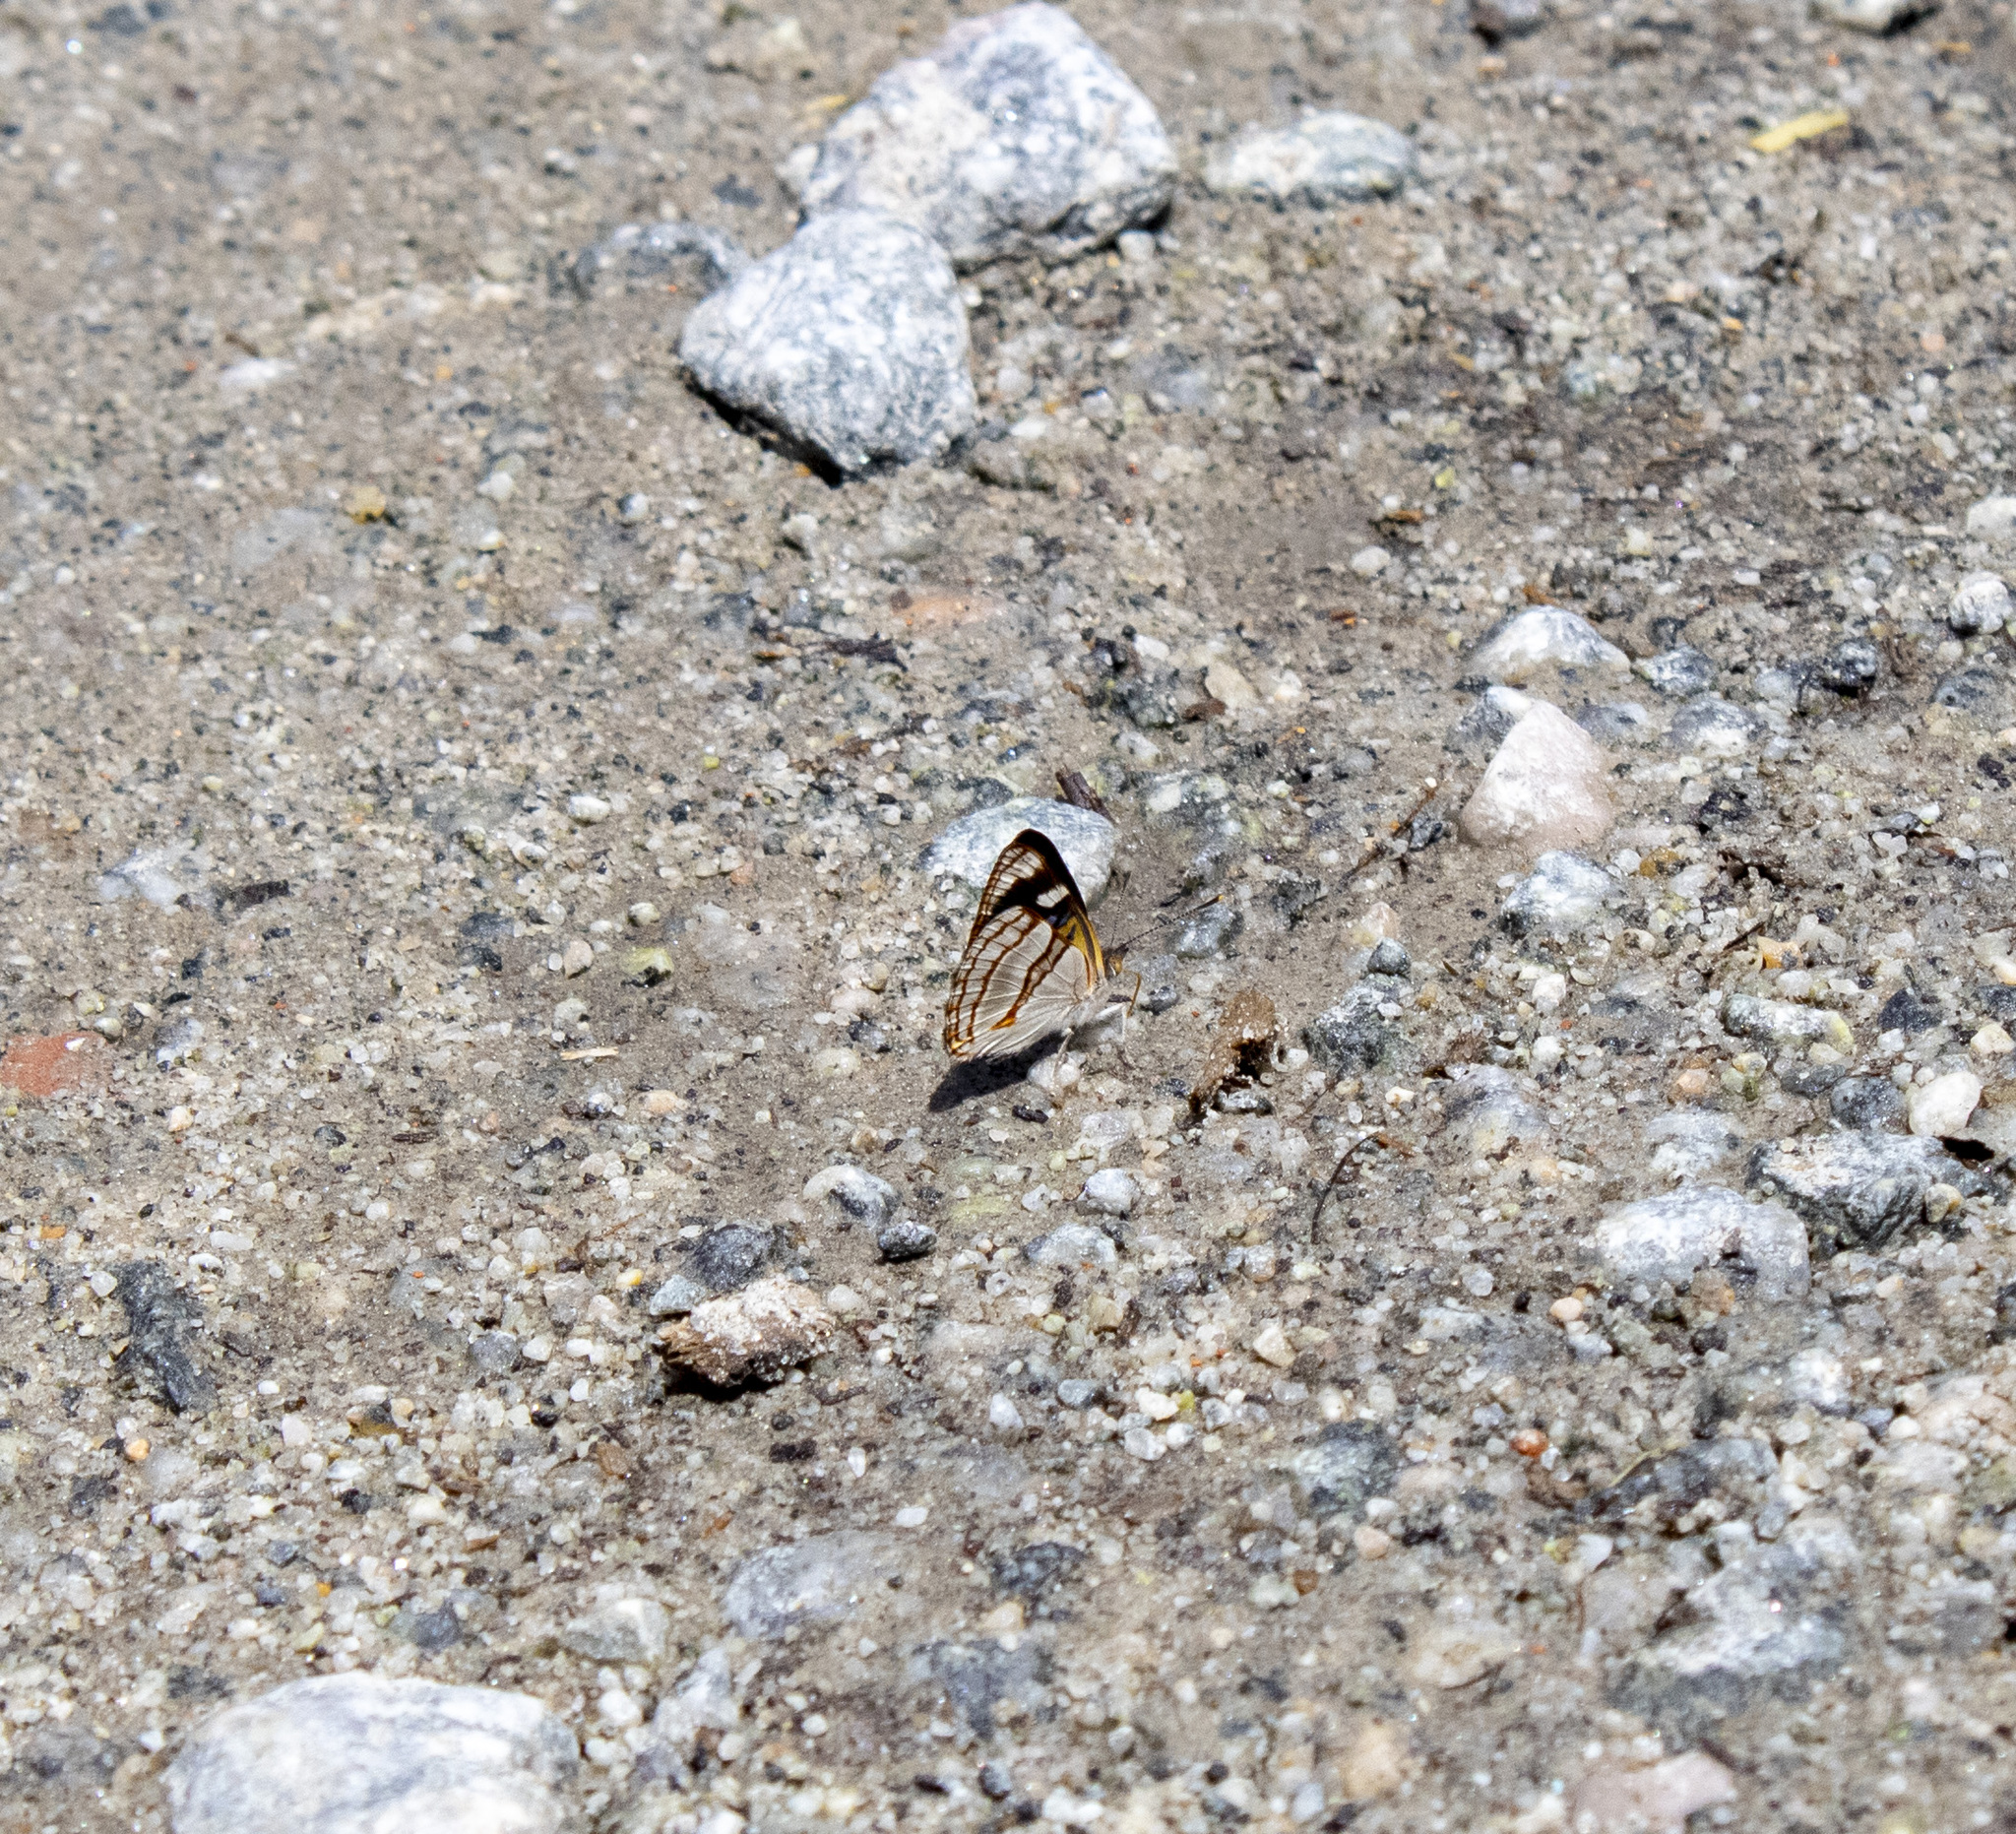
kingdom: Animalia
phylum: Arthropoda
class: Insecta
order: Lepidoptera
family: Nymphalidae
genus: Dynamine
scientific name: Dynamine tithia
